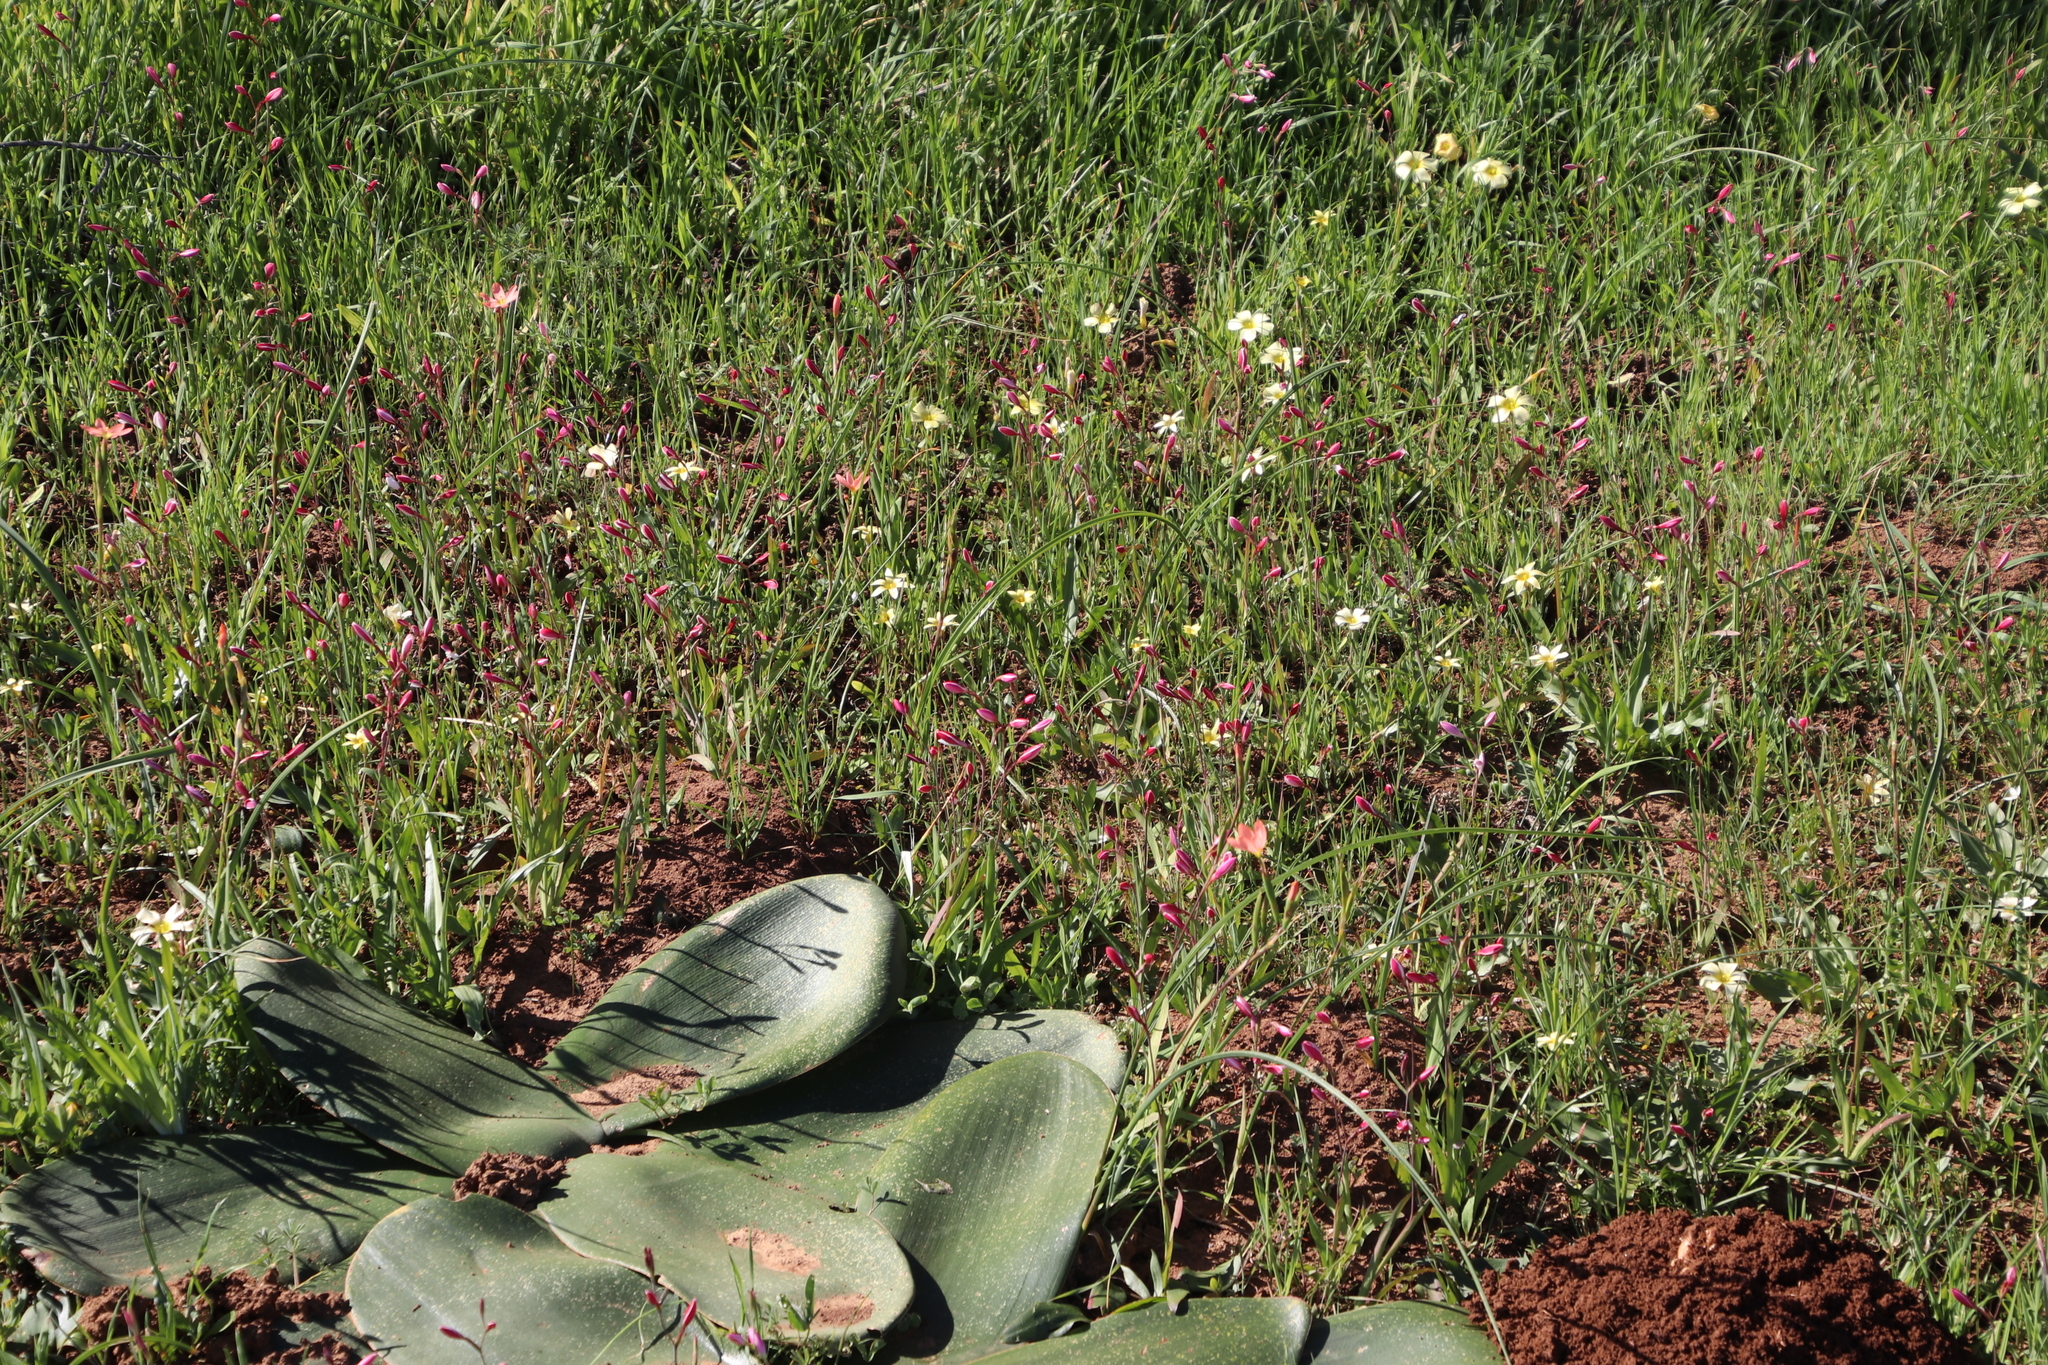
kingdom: Plantae
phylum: Tracheophyta
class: Liliopsida
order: Asparagales
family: Iridaceae
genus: Hesperantha
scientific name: Hesperantha cucullata
